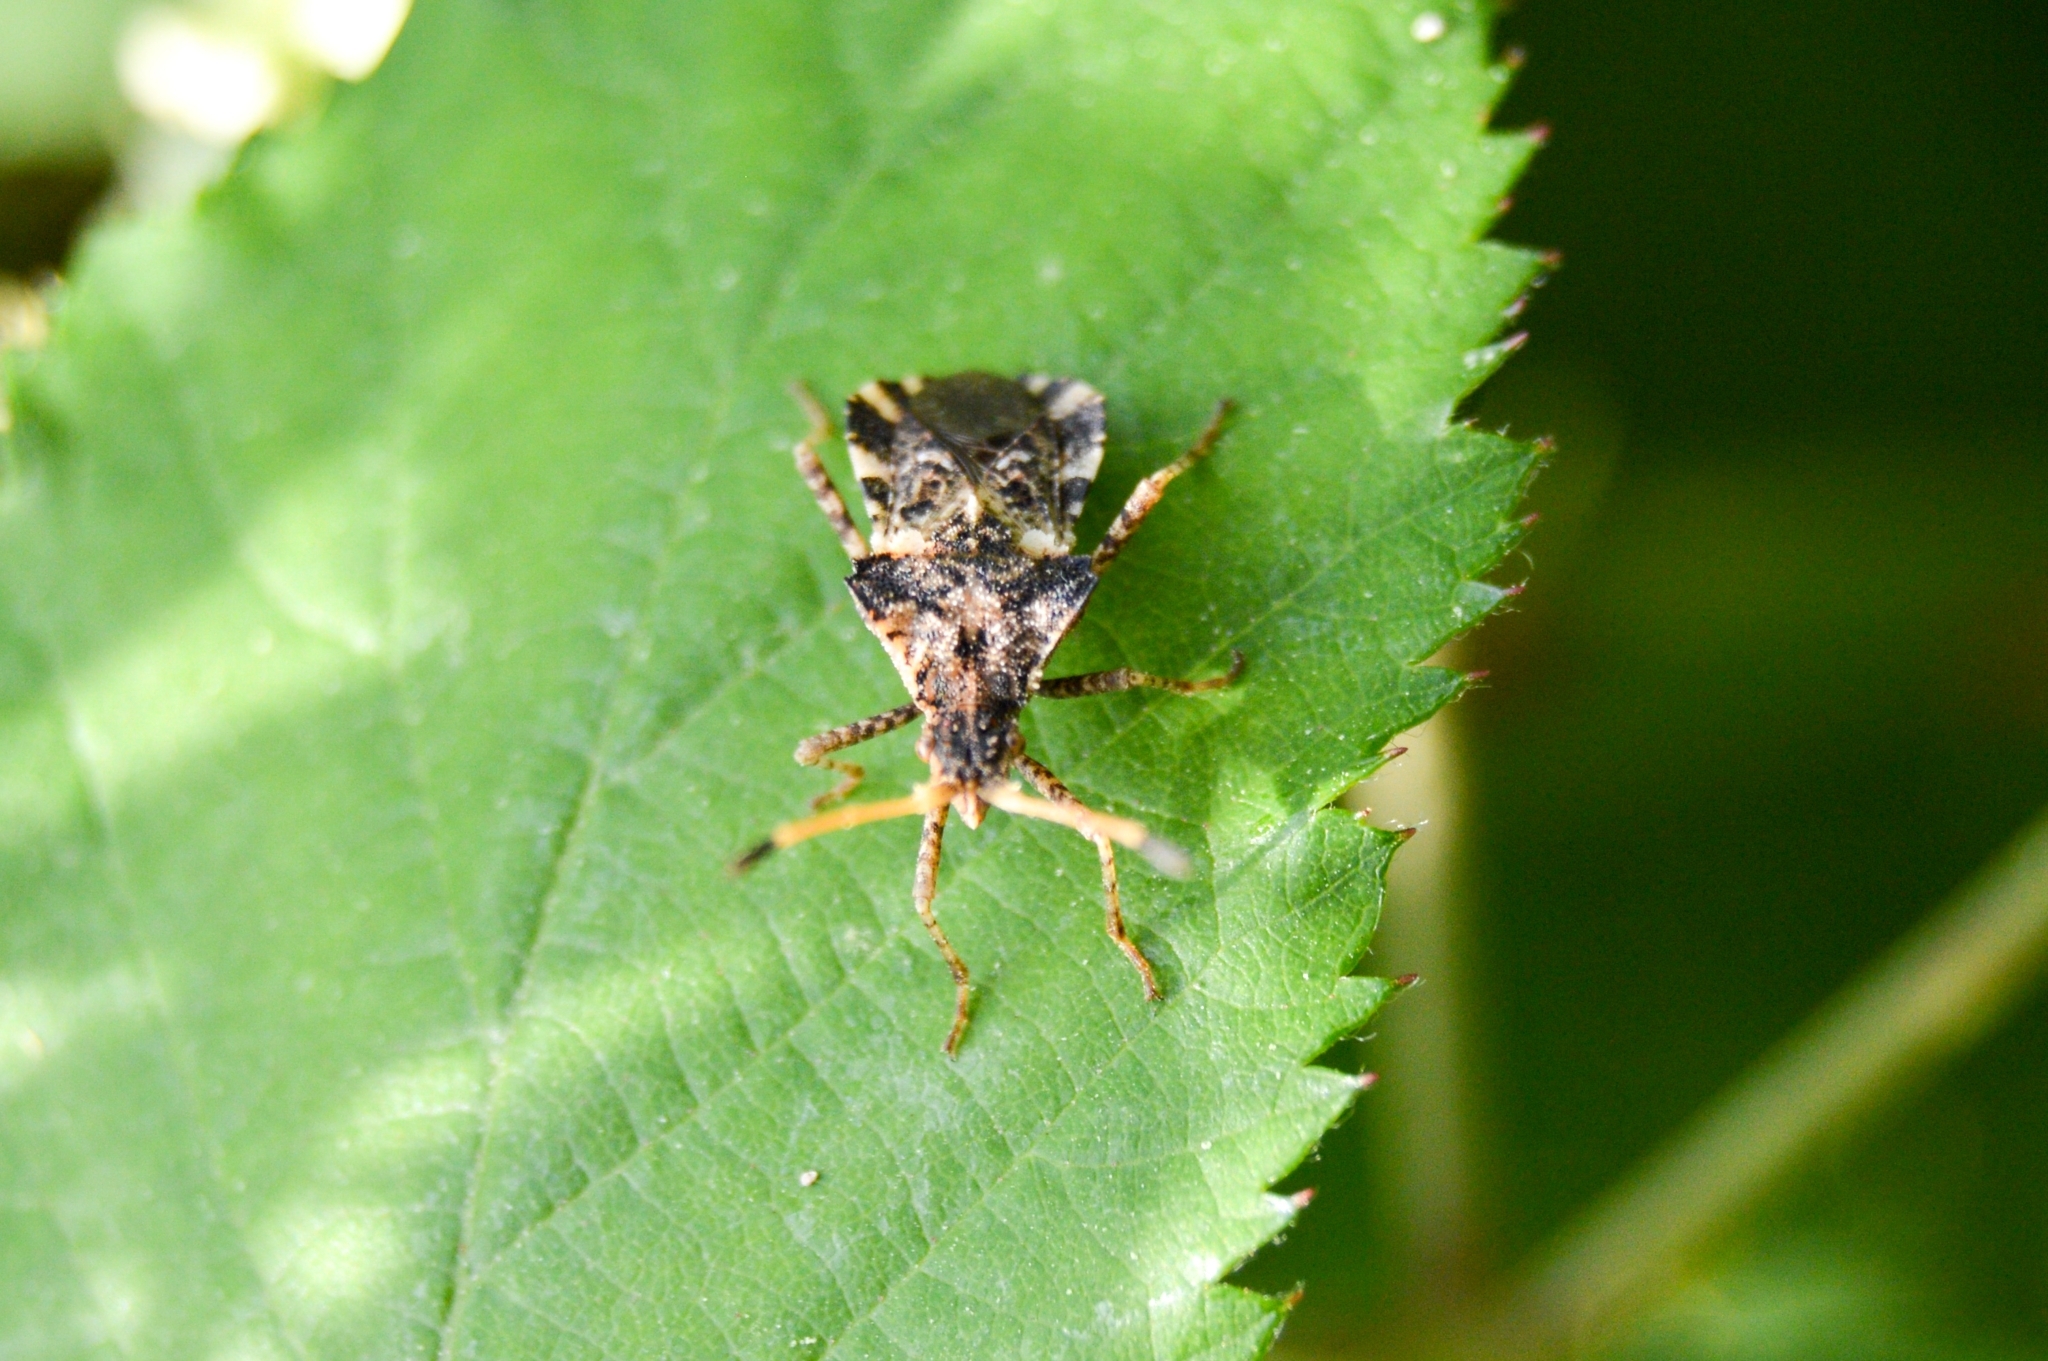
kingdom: Animalia
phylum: Arthropoda
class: Insecta
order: Hemiptera
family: Coreidae
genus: Centrocoris
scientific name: Centrocoris variegatus
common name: Leaf-footed bug
